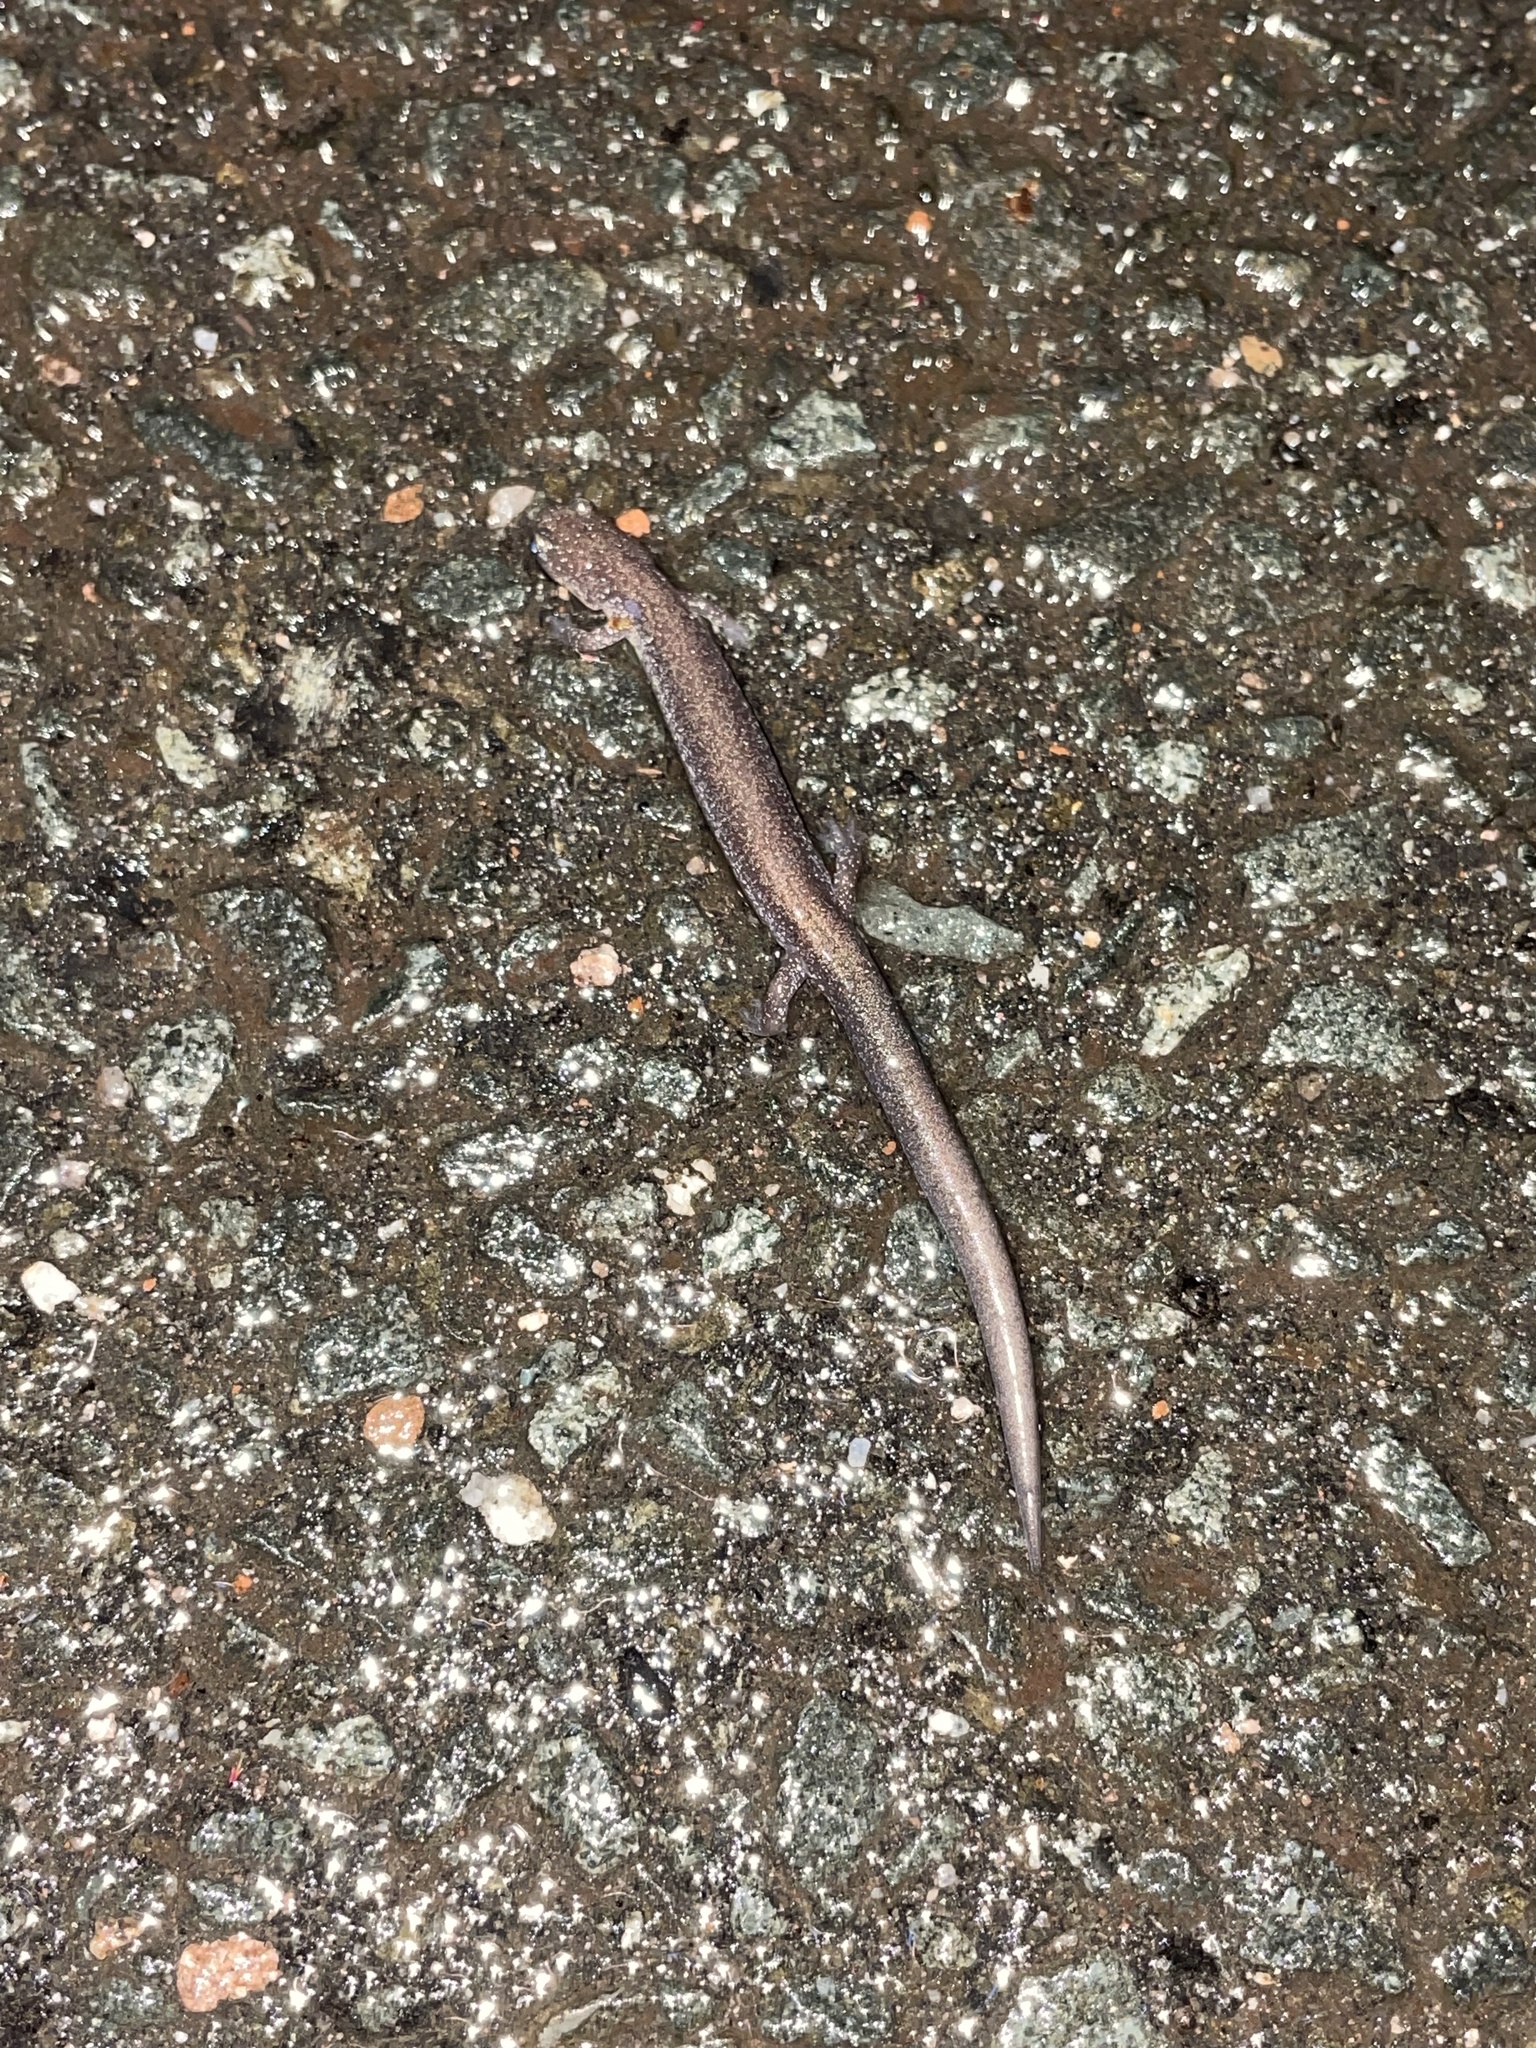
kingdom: Animalia
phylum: Chordata
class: Amphibia
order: Caudata
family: Plethodontidae
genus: Plethodon
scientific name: Plethodon cinereus
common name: Redback salamander
